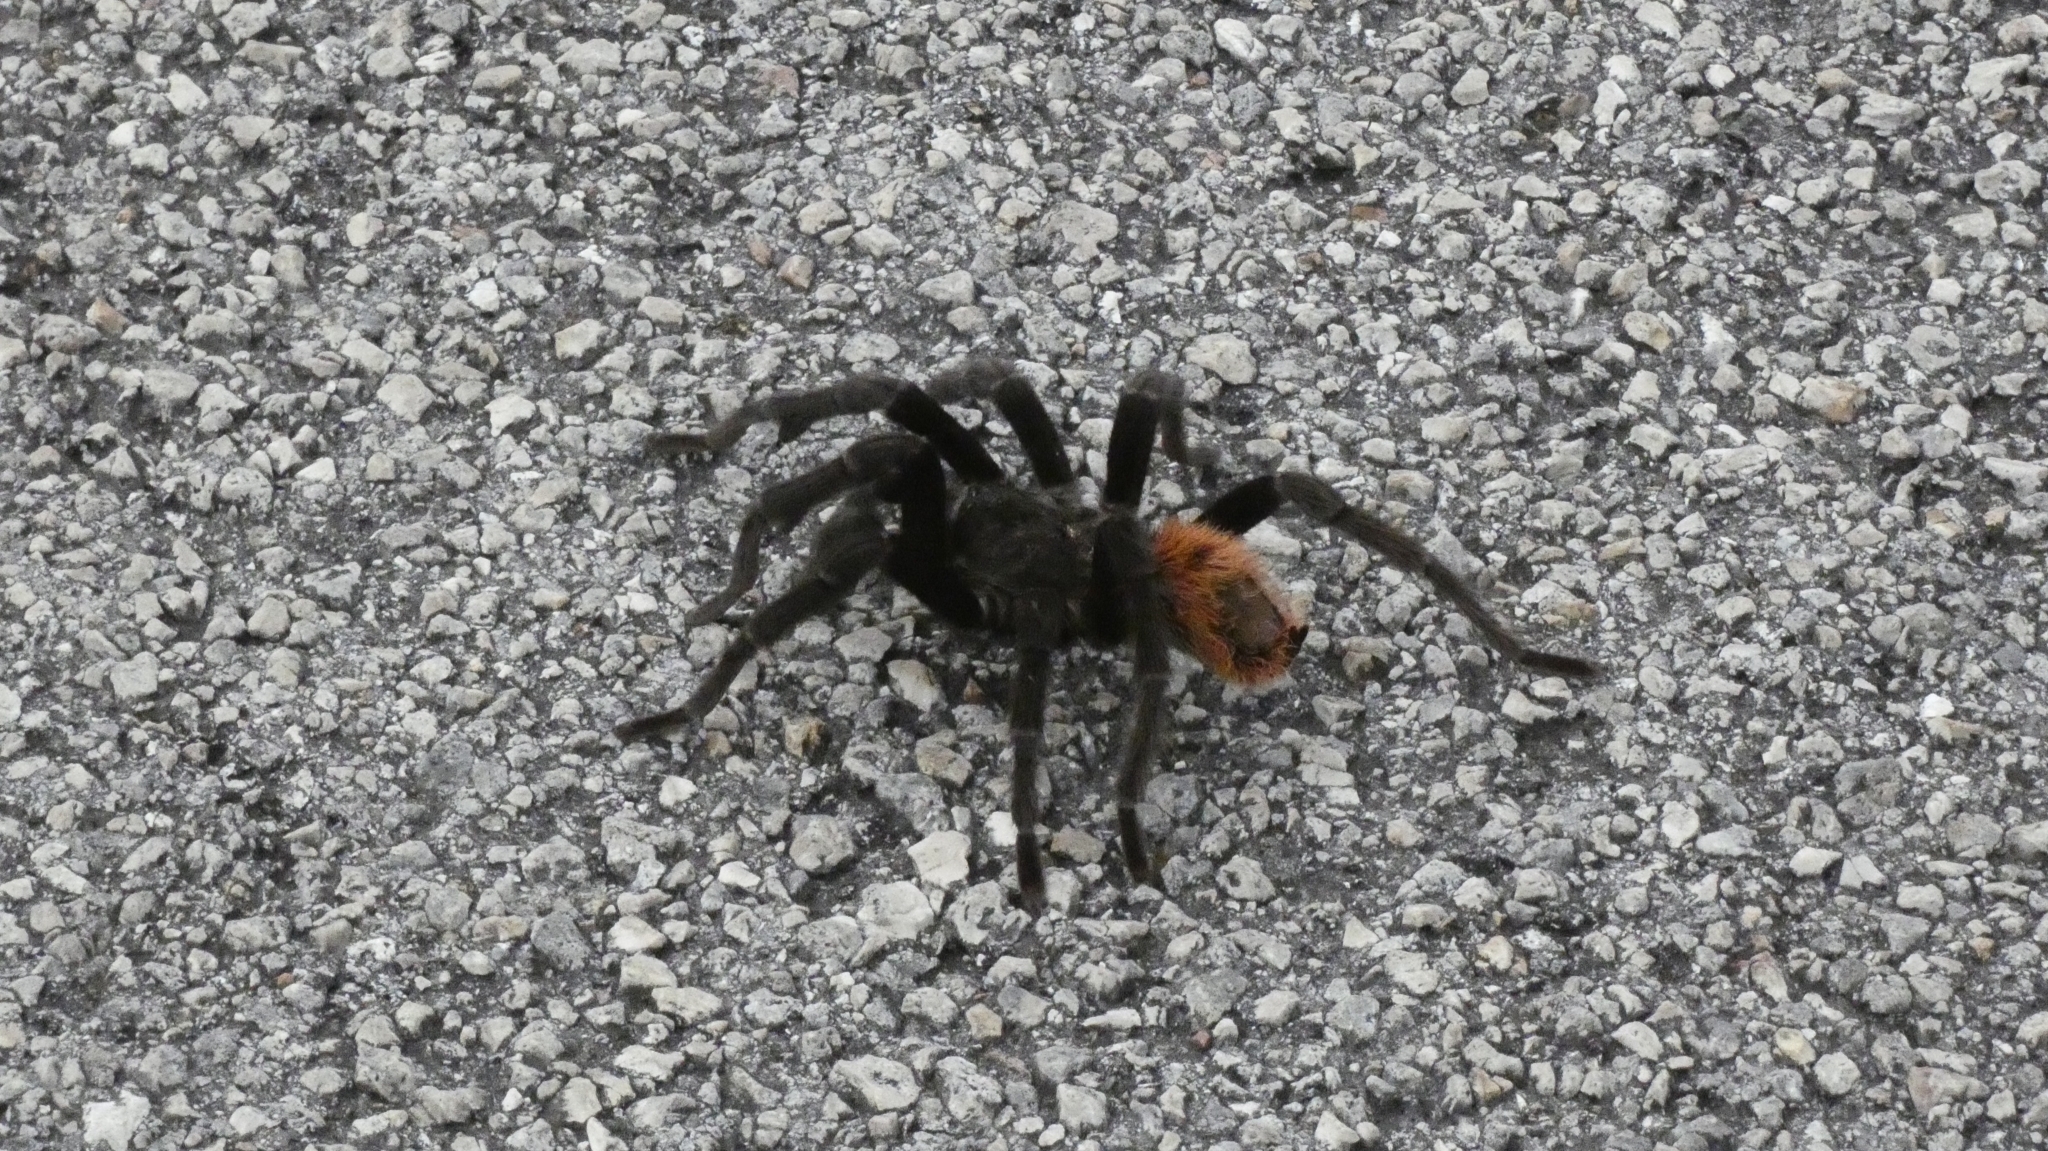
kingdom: Animalia
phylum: Arthropoda
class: Arachnida
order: Araneae
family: Theraphosidae
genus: Tliltocatl
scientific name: Tliltocatl epicureanus
